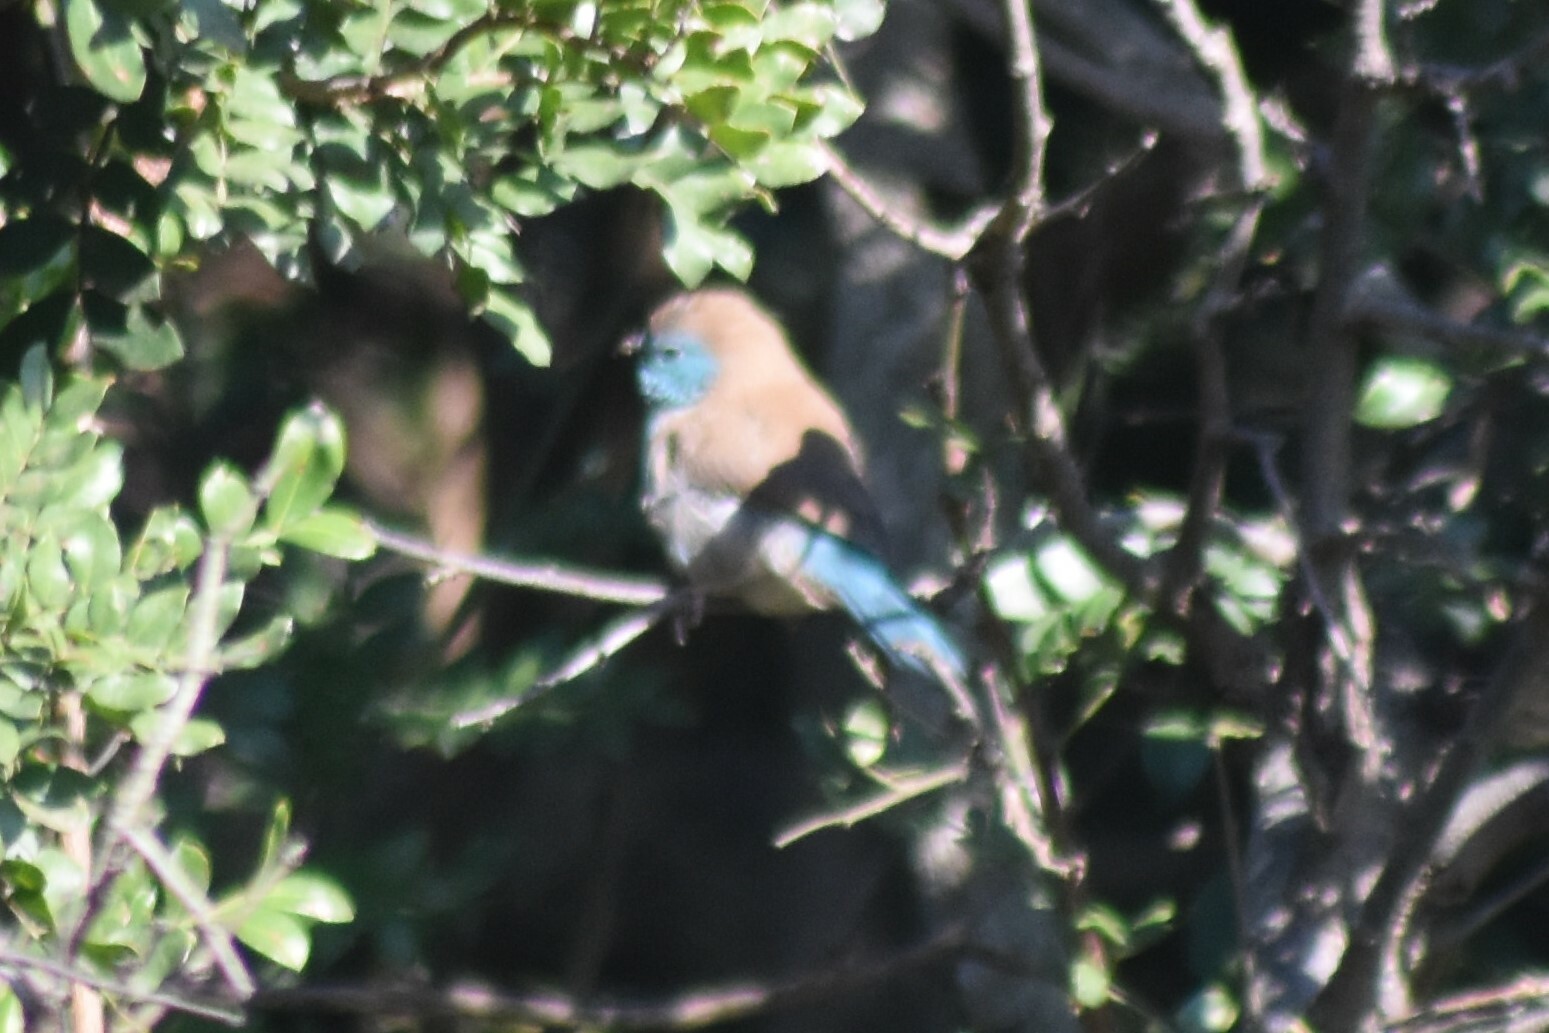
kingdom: Animalia
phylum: Chordata
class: Aves
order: Passeriformes
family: Estrildidae
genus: Uraeginthus
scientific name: Uraeginthus angolensis
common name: Blue waxbill
